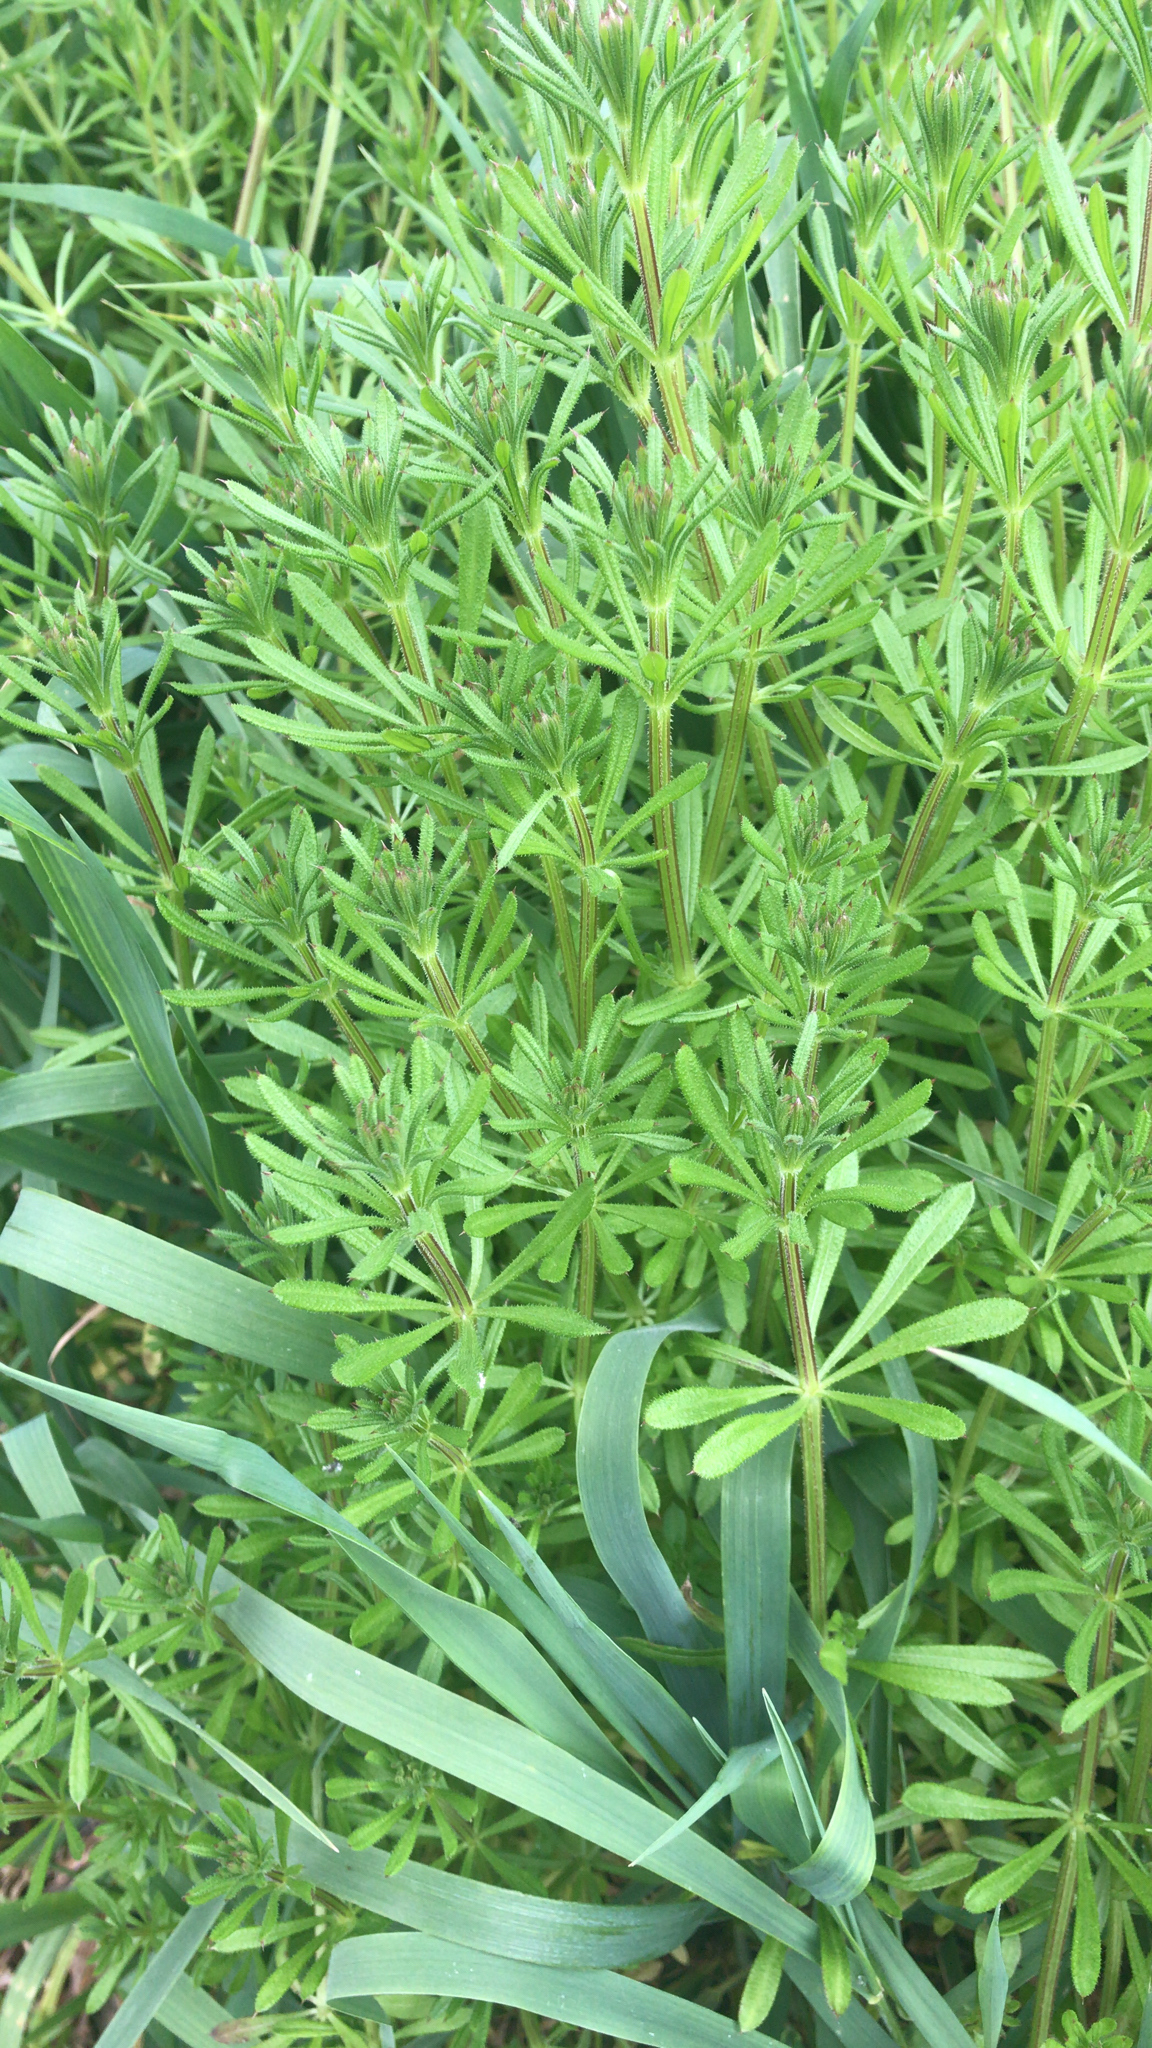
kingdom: Plantae
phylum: Tracheophyta
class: Magnoliopsida
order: Gentianales
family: Rubiaceae
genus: Galium
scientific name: Galium aparine
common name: Cleavers
